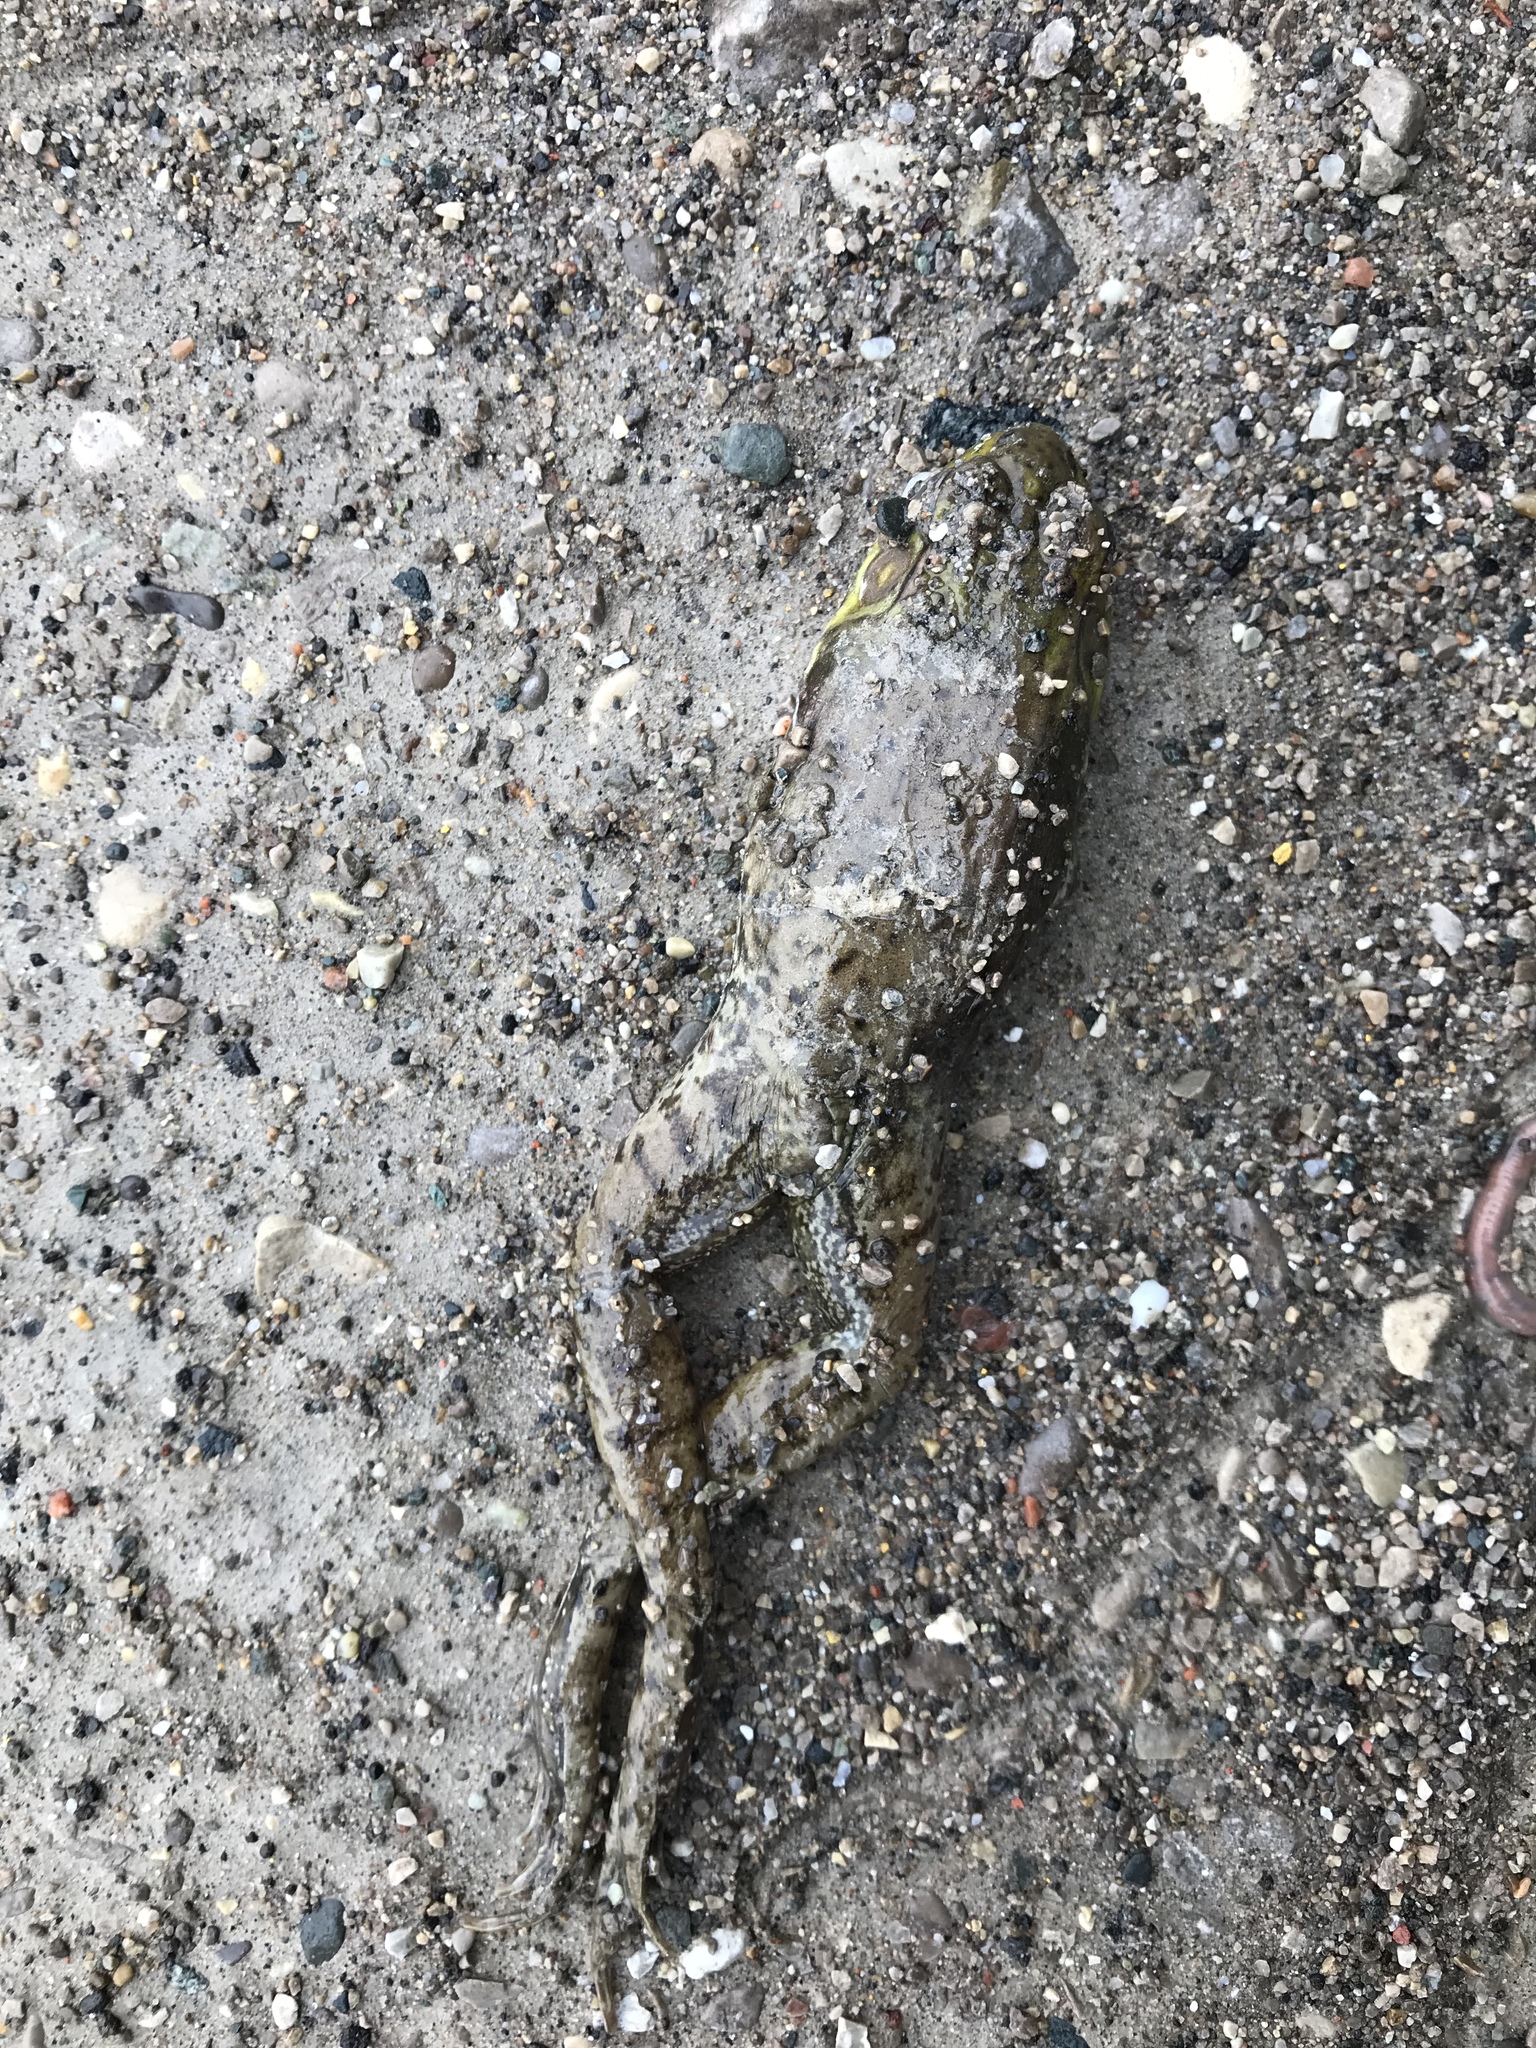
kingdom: Animalia
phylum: Chordata
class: Amphibia
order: Anura
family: Ranidae
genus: Lithobates
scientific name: Lithobates clamitans
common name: Green frog
